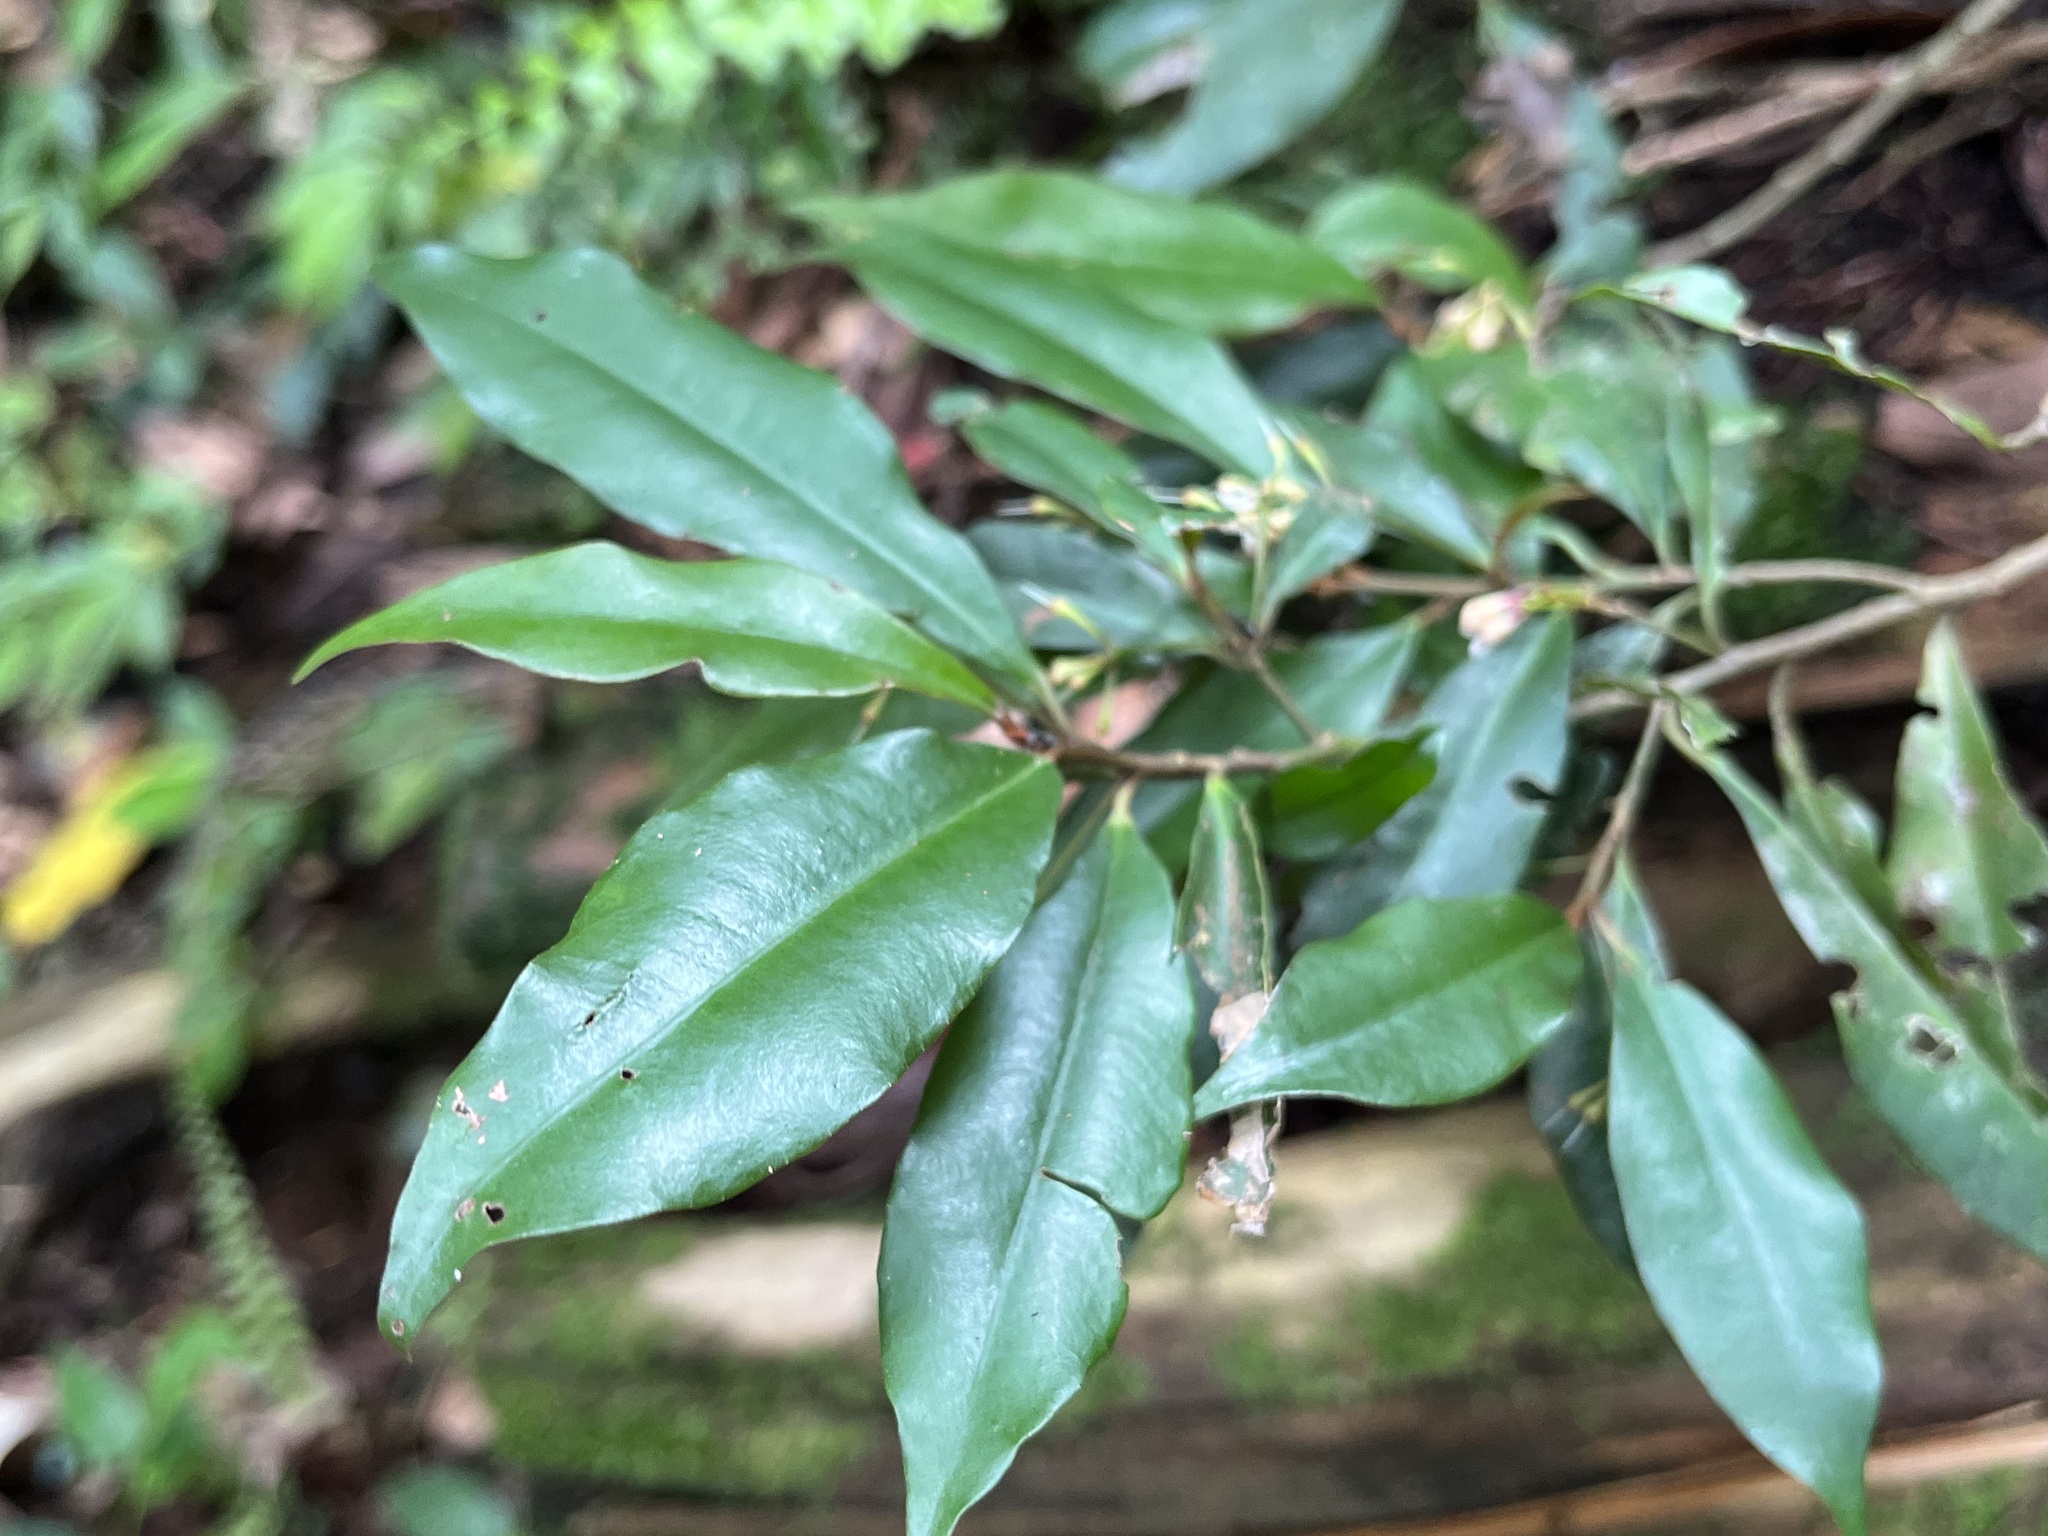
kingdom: Plantae
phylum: Tracheophyta
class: Magnoliopsida
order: Ericales
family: Primulaceae
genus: Ardisia
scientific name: Ardisia quinquegona
